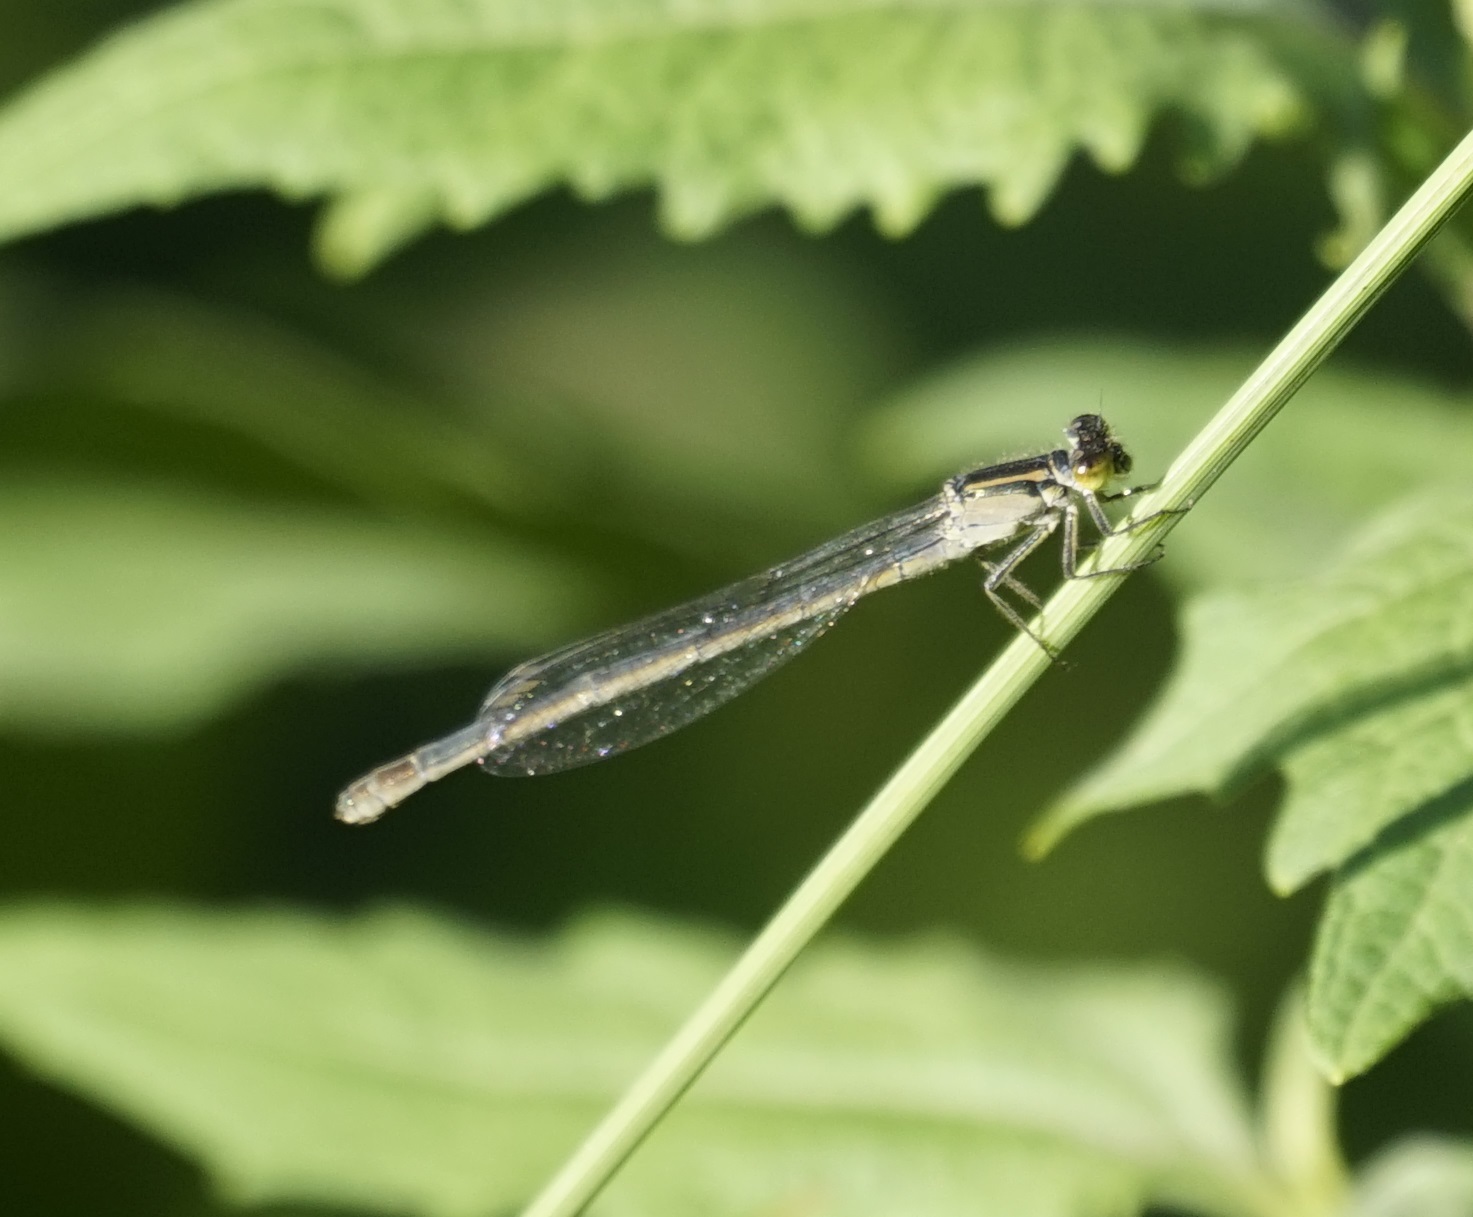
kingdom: Animalia
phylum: Arthropoda
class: Insecta
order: Odonata
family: Coenagrionidae
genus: Ischnura
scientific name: Ischnura heterosticta
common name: Common bluetail
